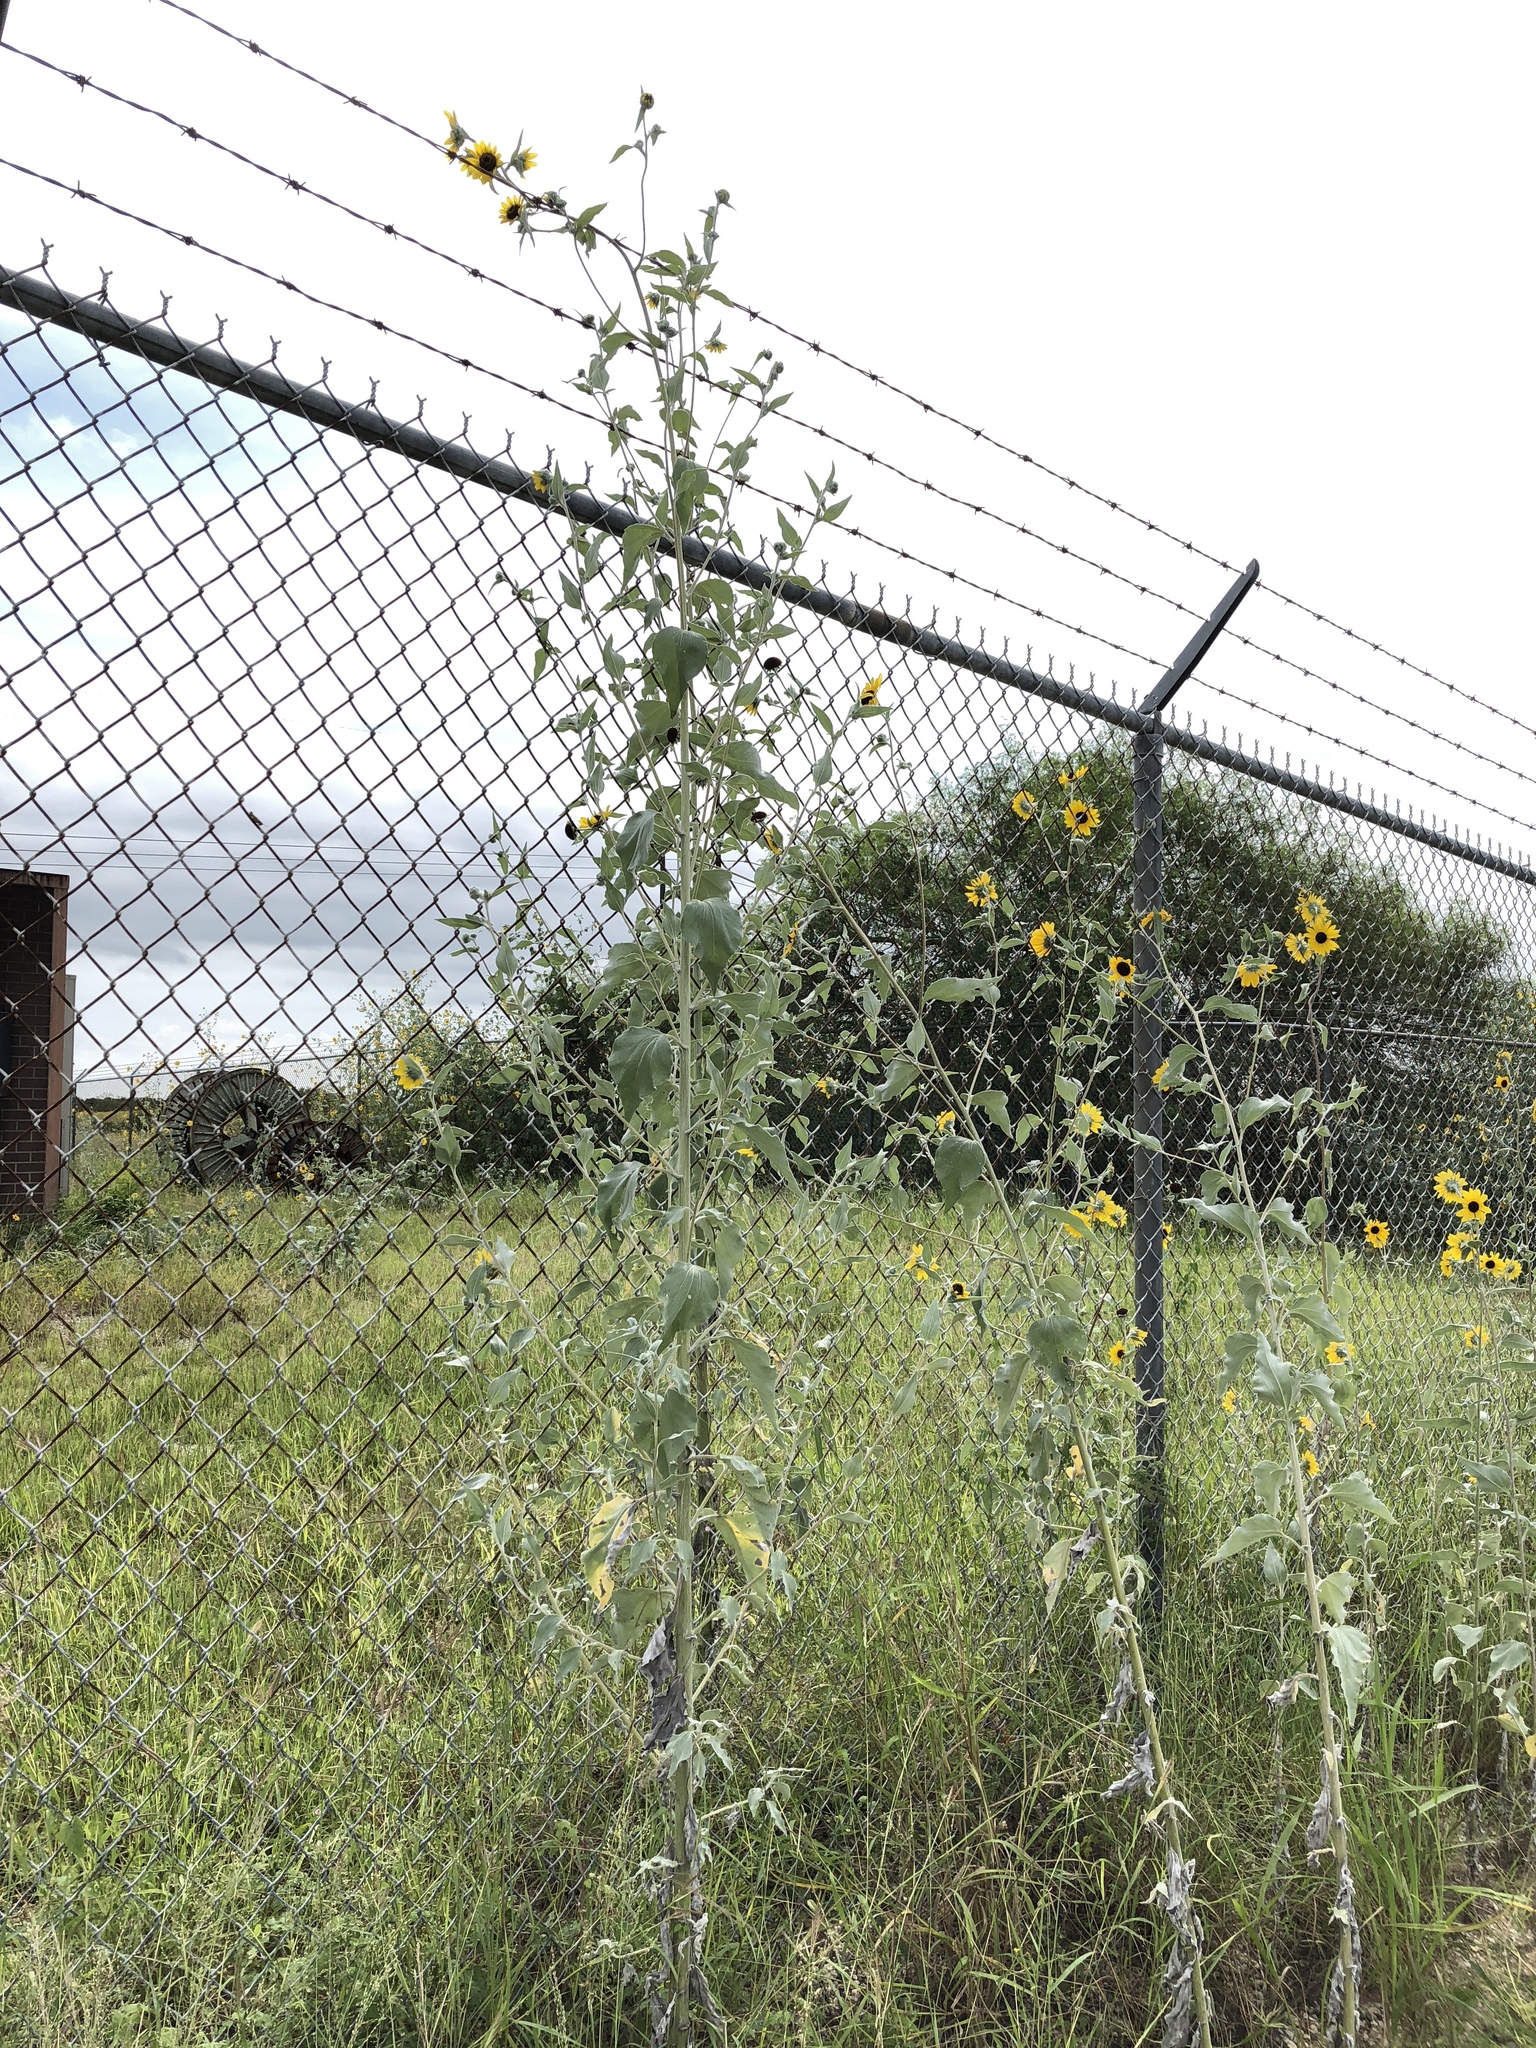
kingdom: Plantae
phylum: Tracheophyta
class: Magnoliopsida
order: Asterales
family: Asteraceae
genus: Helianthus
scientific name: Helianthus argophyllus
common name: Silverleaf sunflower
